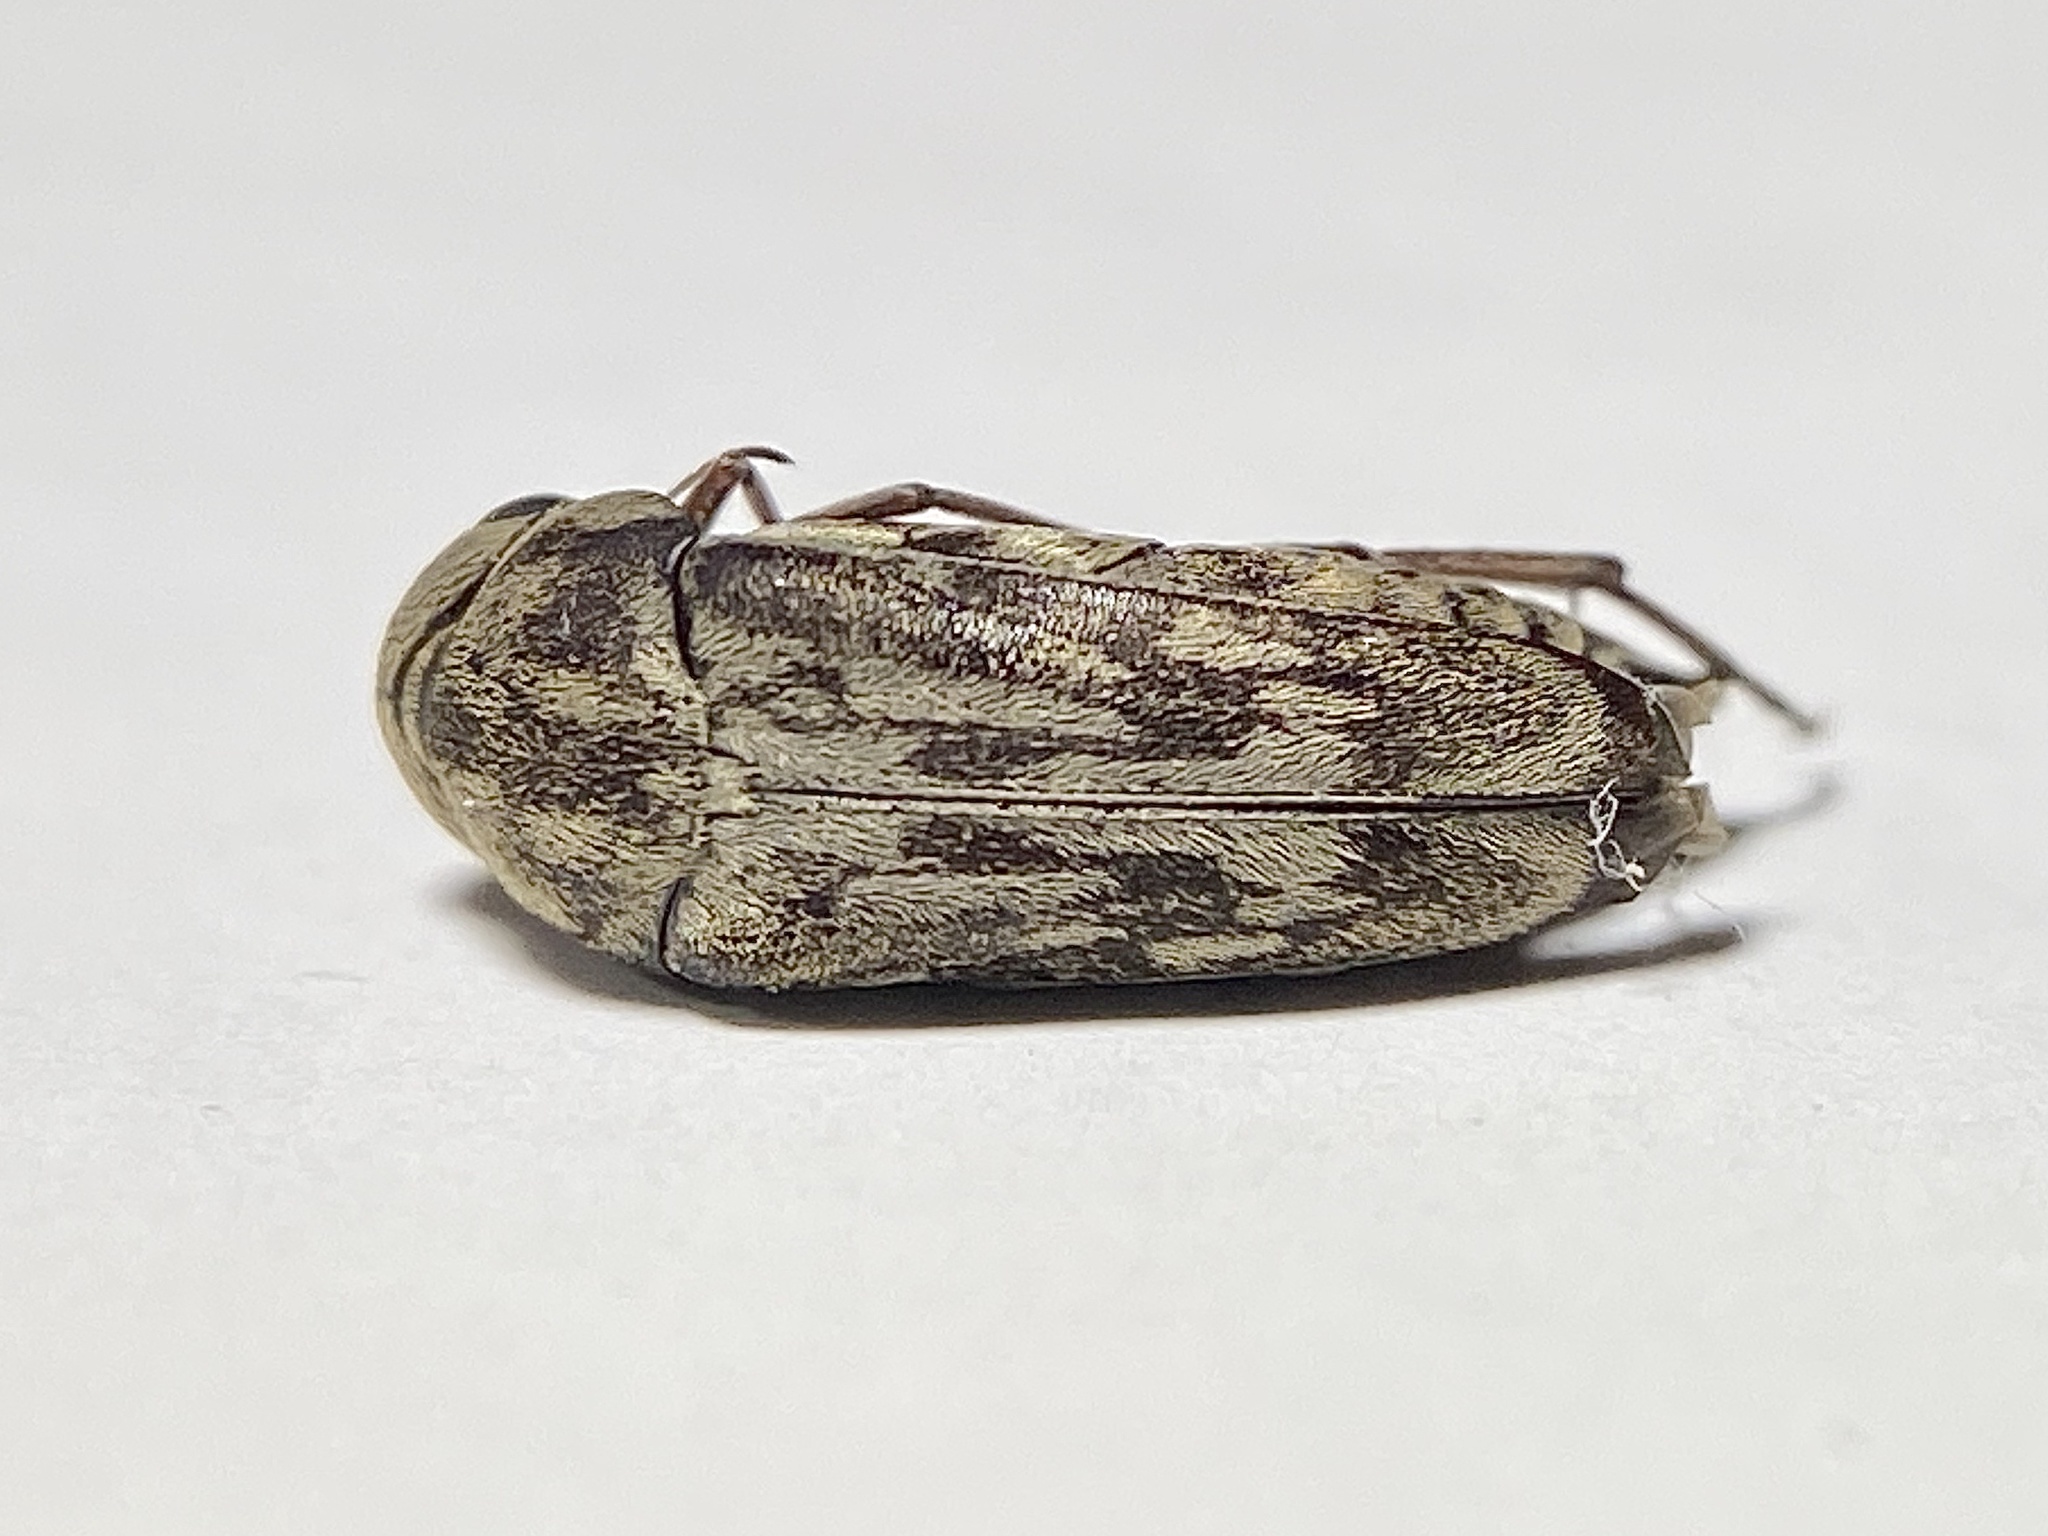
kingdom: Animalia
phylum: Arthropoda
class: Insecta
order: Coleoptera
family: Mordellidae
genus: Yakuhananomia
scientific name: Yakuhananomia bidentata
